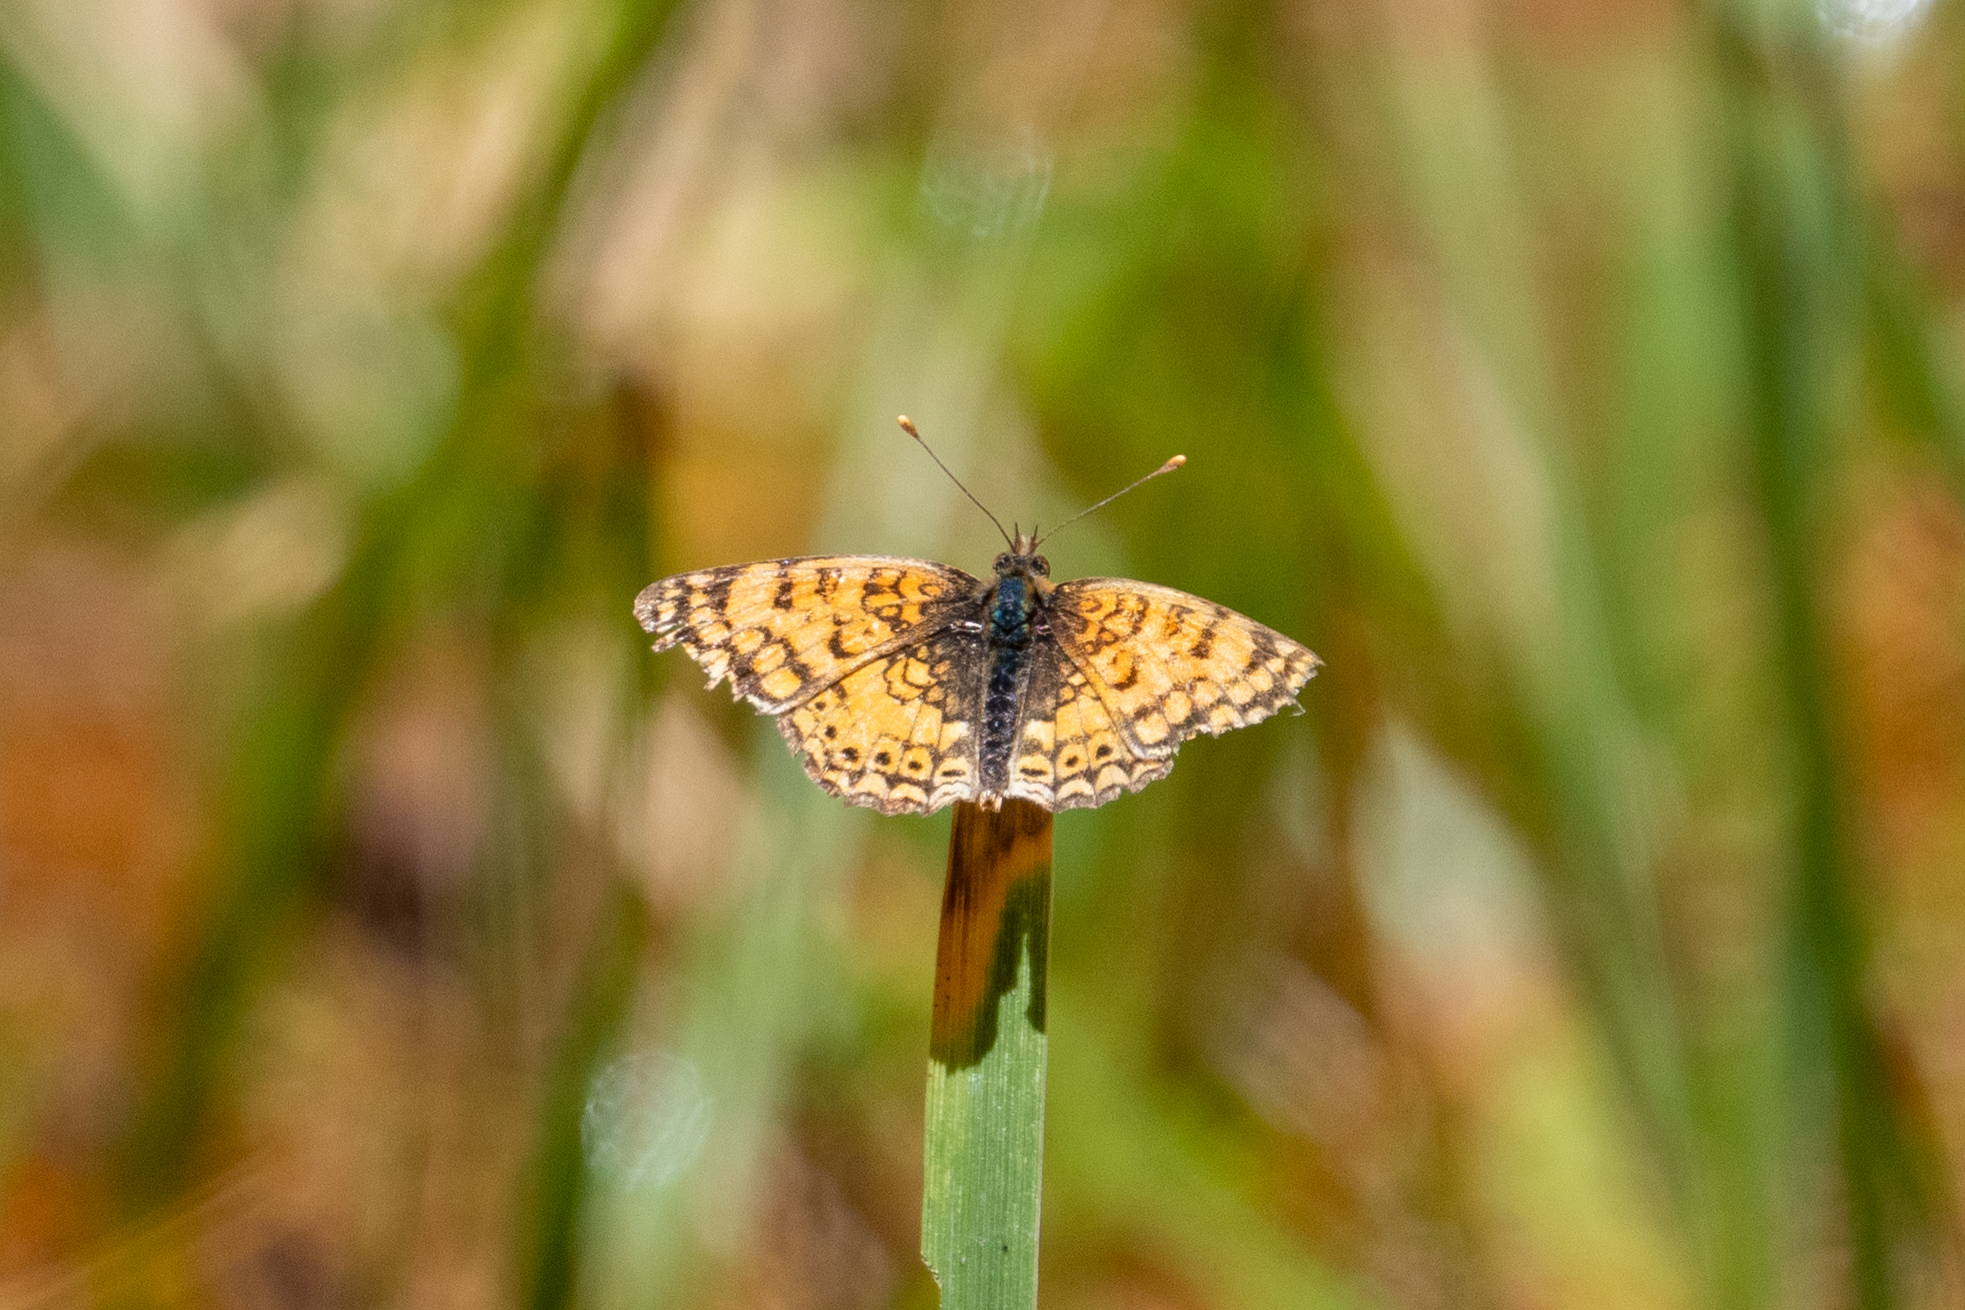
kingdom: Animalia
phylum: Arthropoda
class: Insecta
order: Lepidoptera
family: Nymphalidae
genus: Eresia
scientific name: Eresia aveyrona
